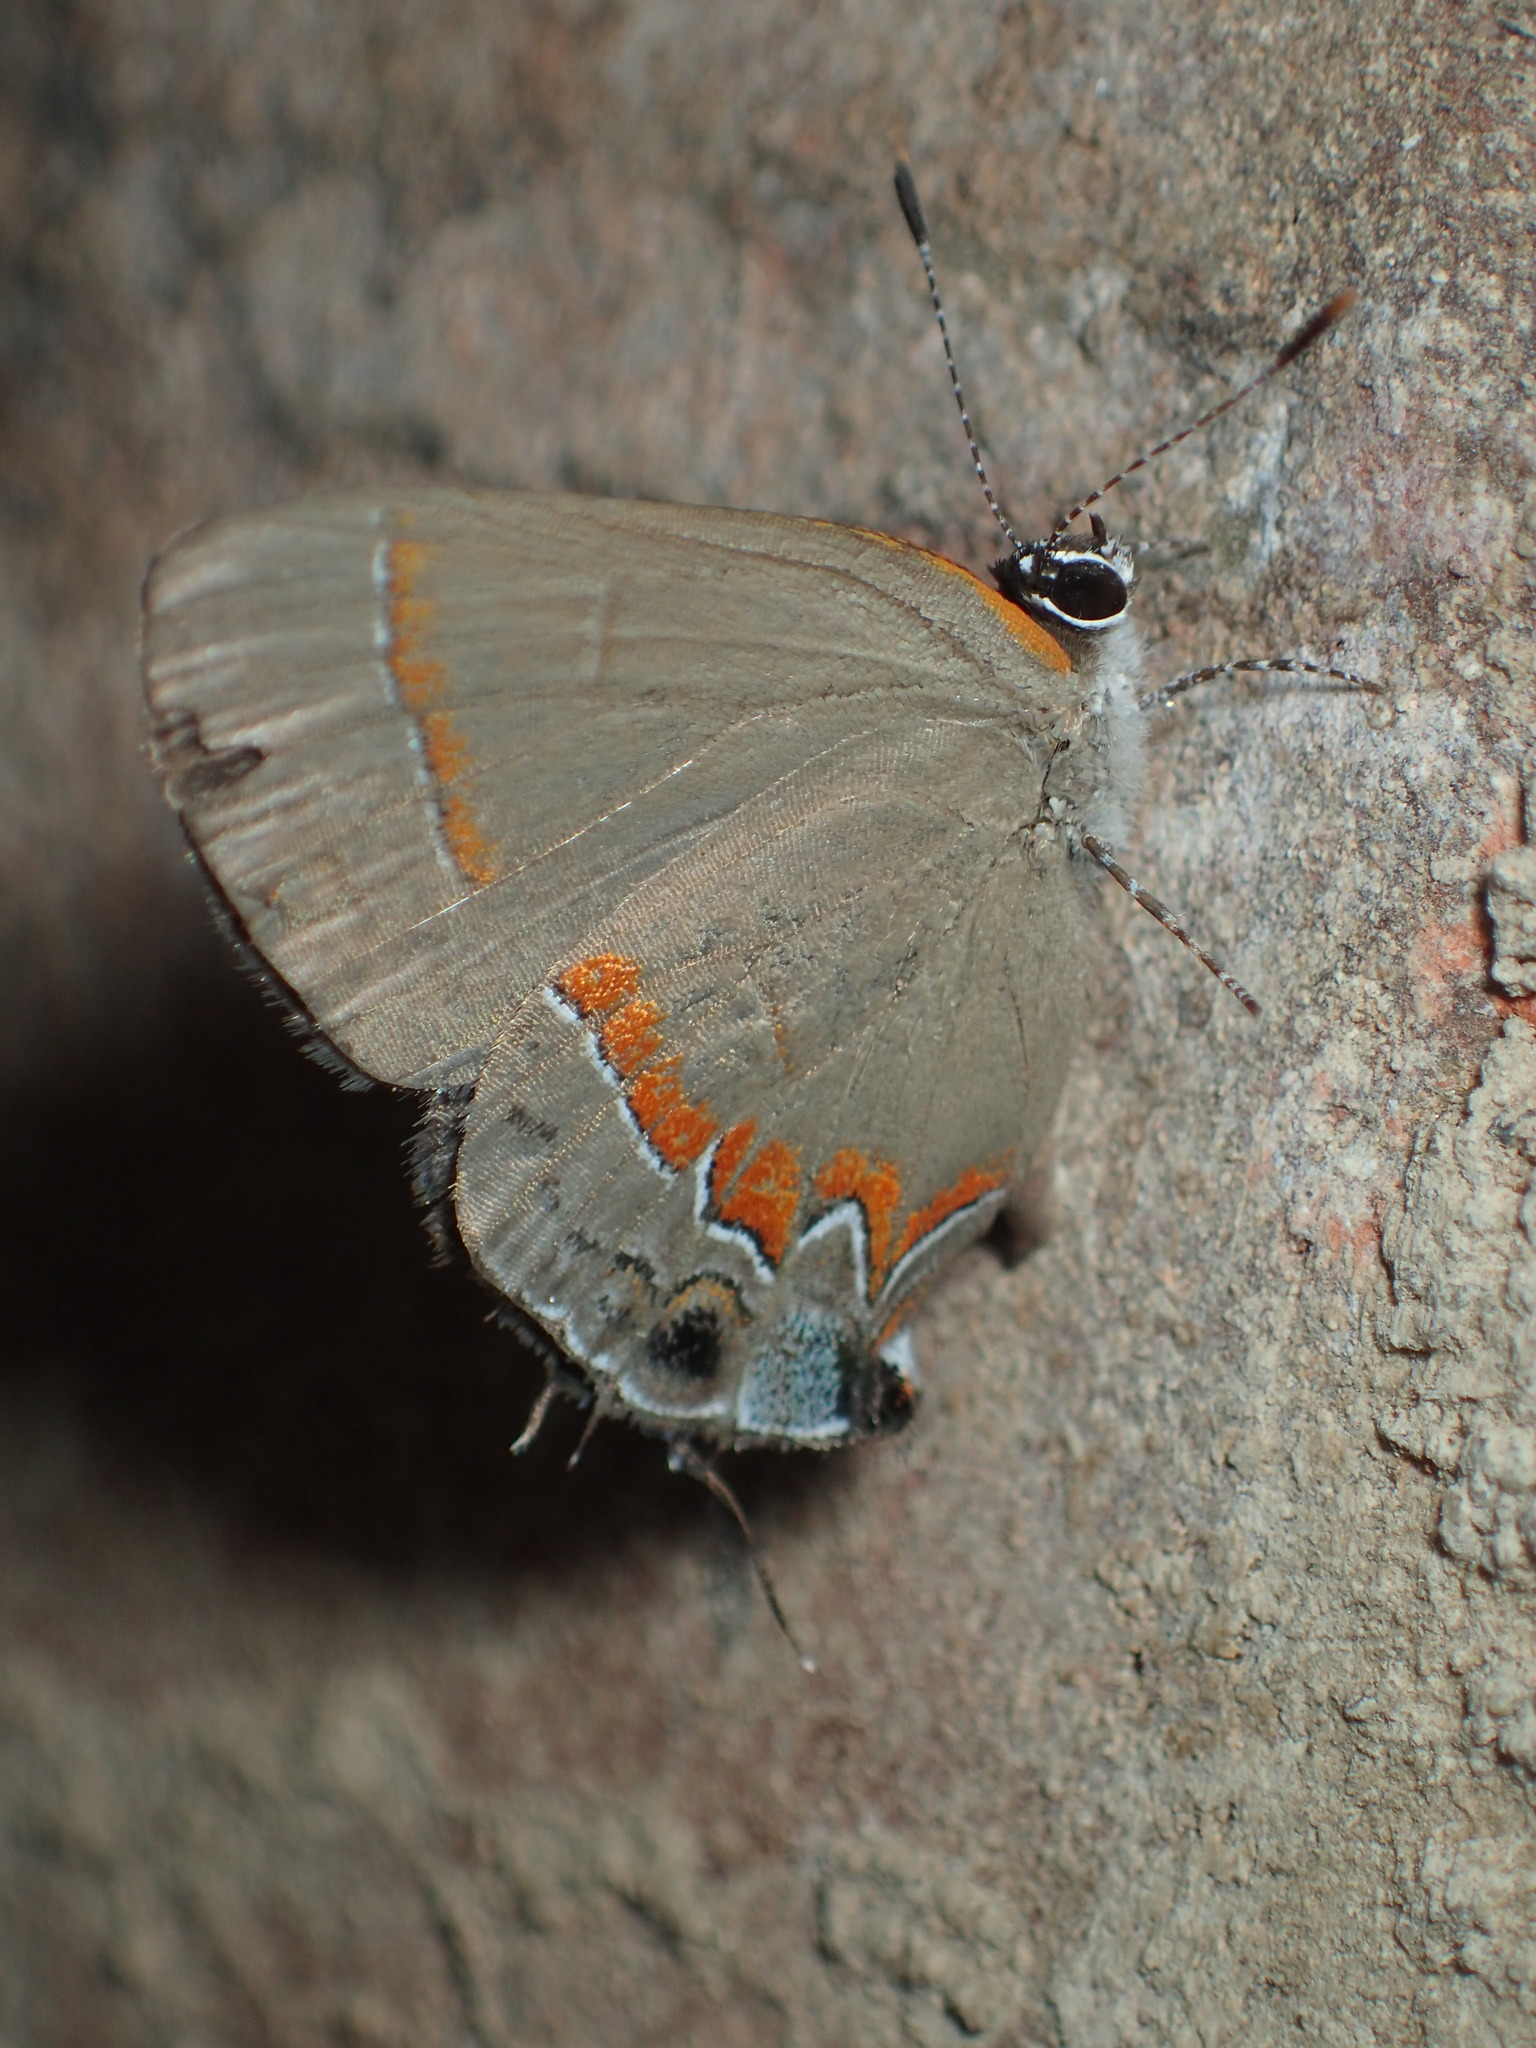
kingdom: Animalia
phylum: Arthropoda
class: Insecta
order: Lepidoptera
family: Lycaenidae
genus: Calycopis
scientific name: Calycopis cecrops
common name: Red-banded hairstreak
